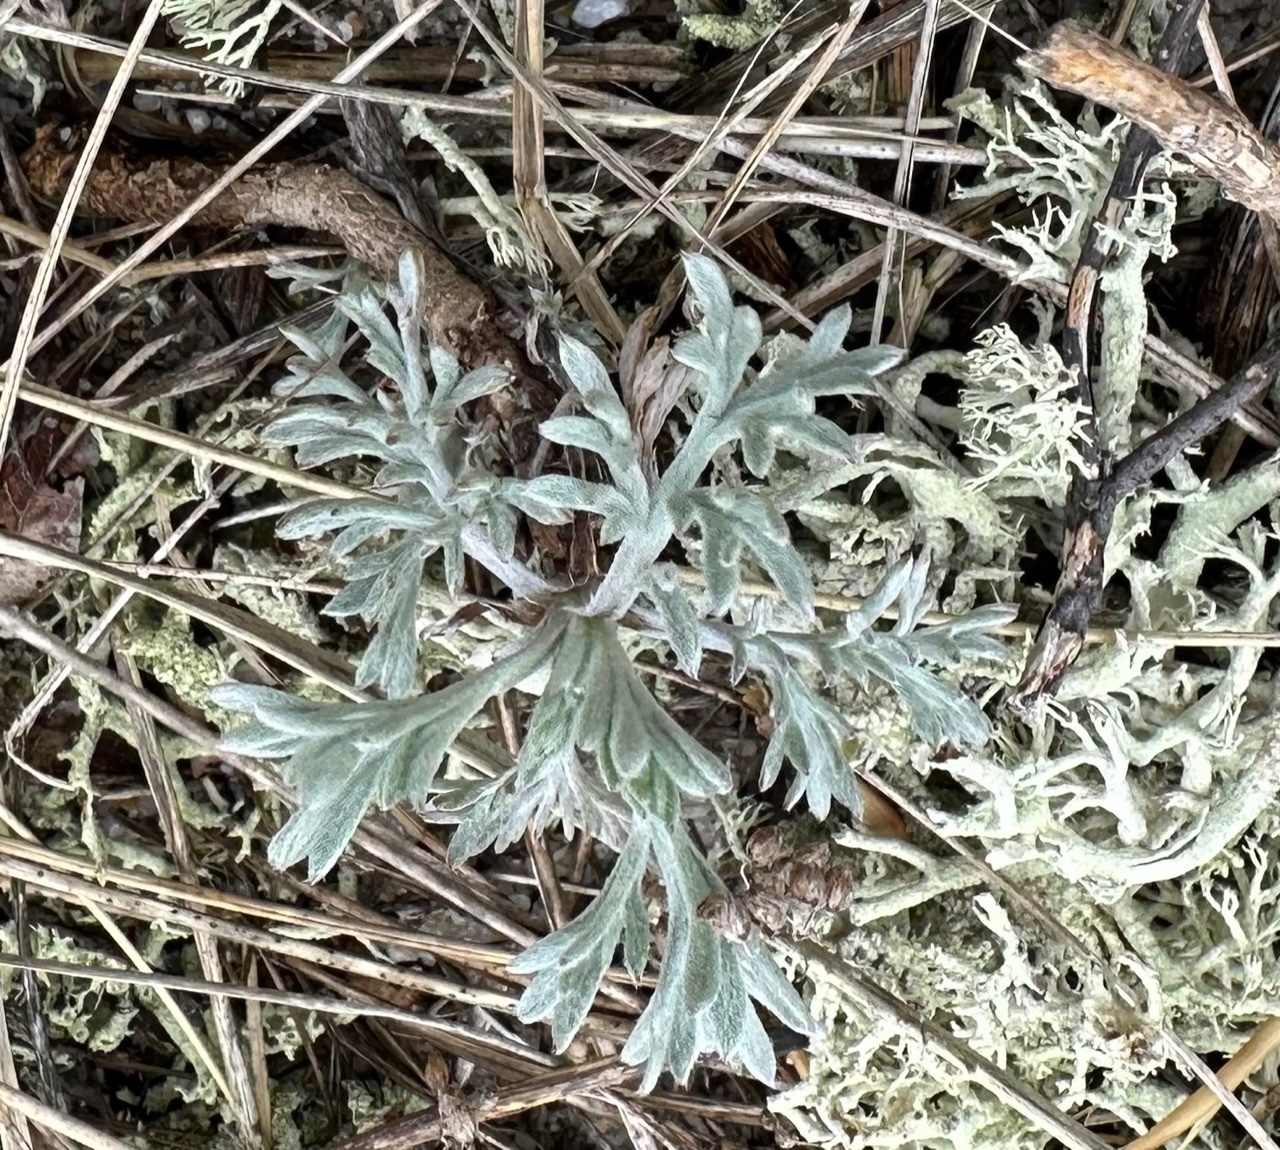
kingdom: Plantae
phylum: Tracheophyta
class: Magnoliopsida
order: Asterales
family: Asteraceae
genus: Artemisia
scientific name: Artemisia stelleriana
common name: Beach wormwood
